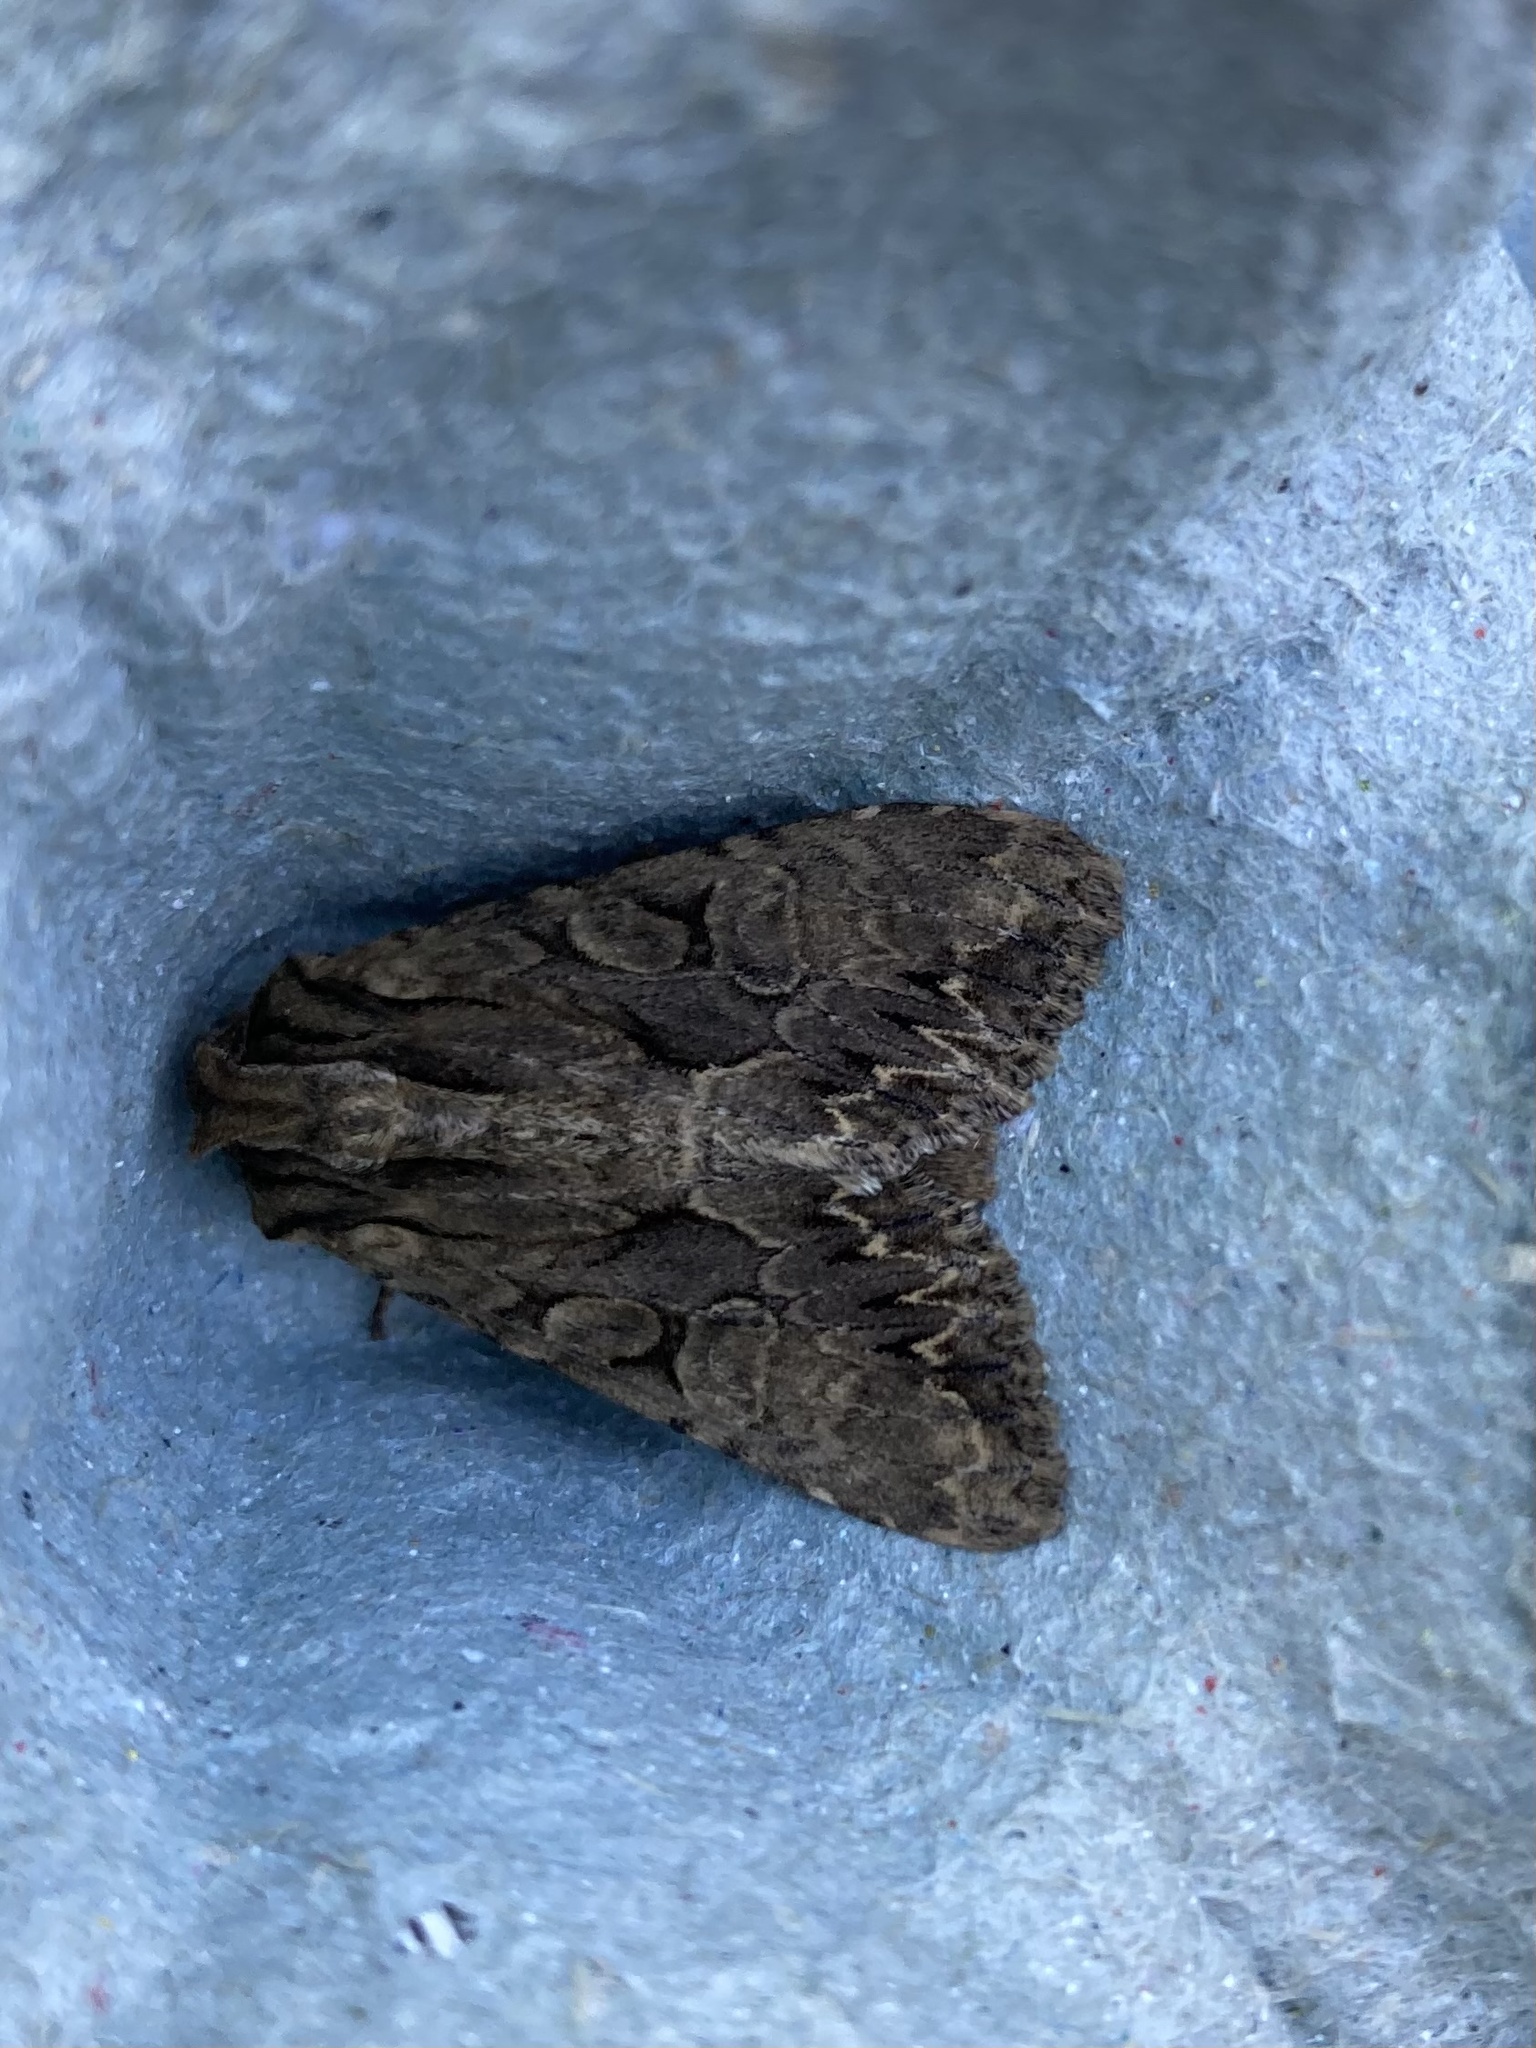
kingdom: Animalia
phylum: Arthropoda
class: Insecta
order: Lepidoptera
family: Noctuidae
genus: Apamea
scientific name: Apamea monoglypha
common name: Dark arches
